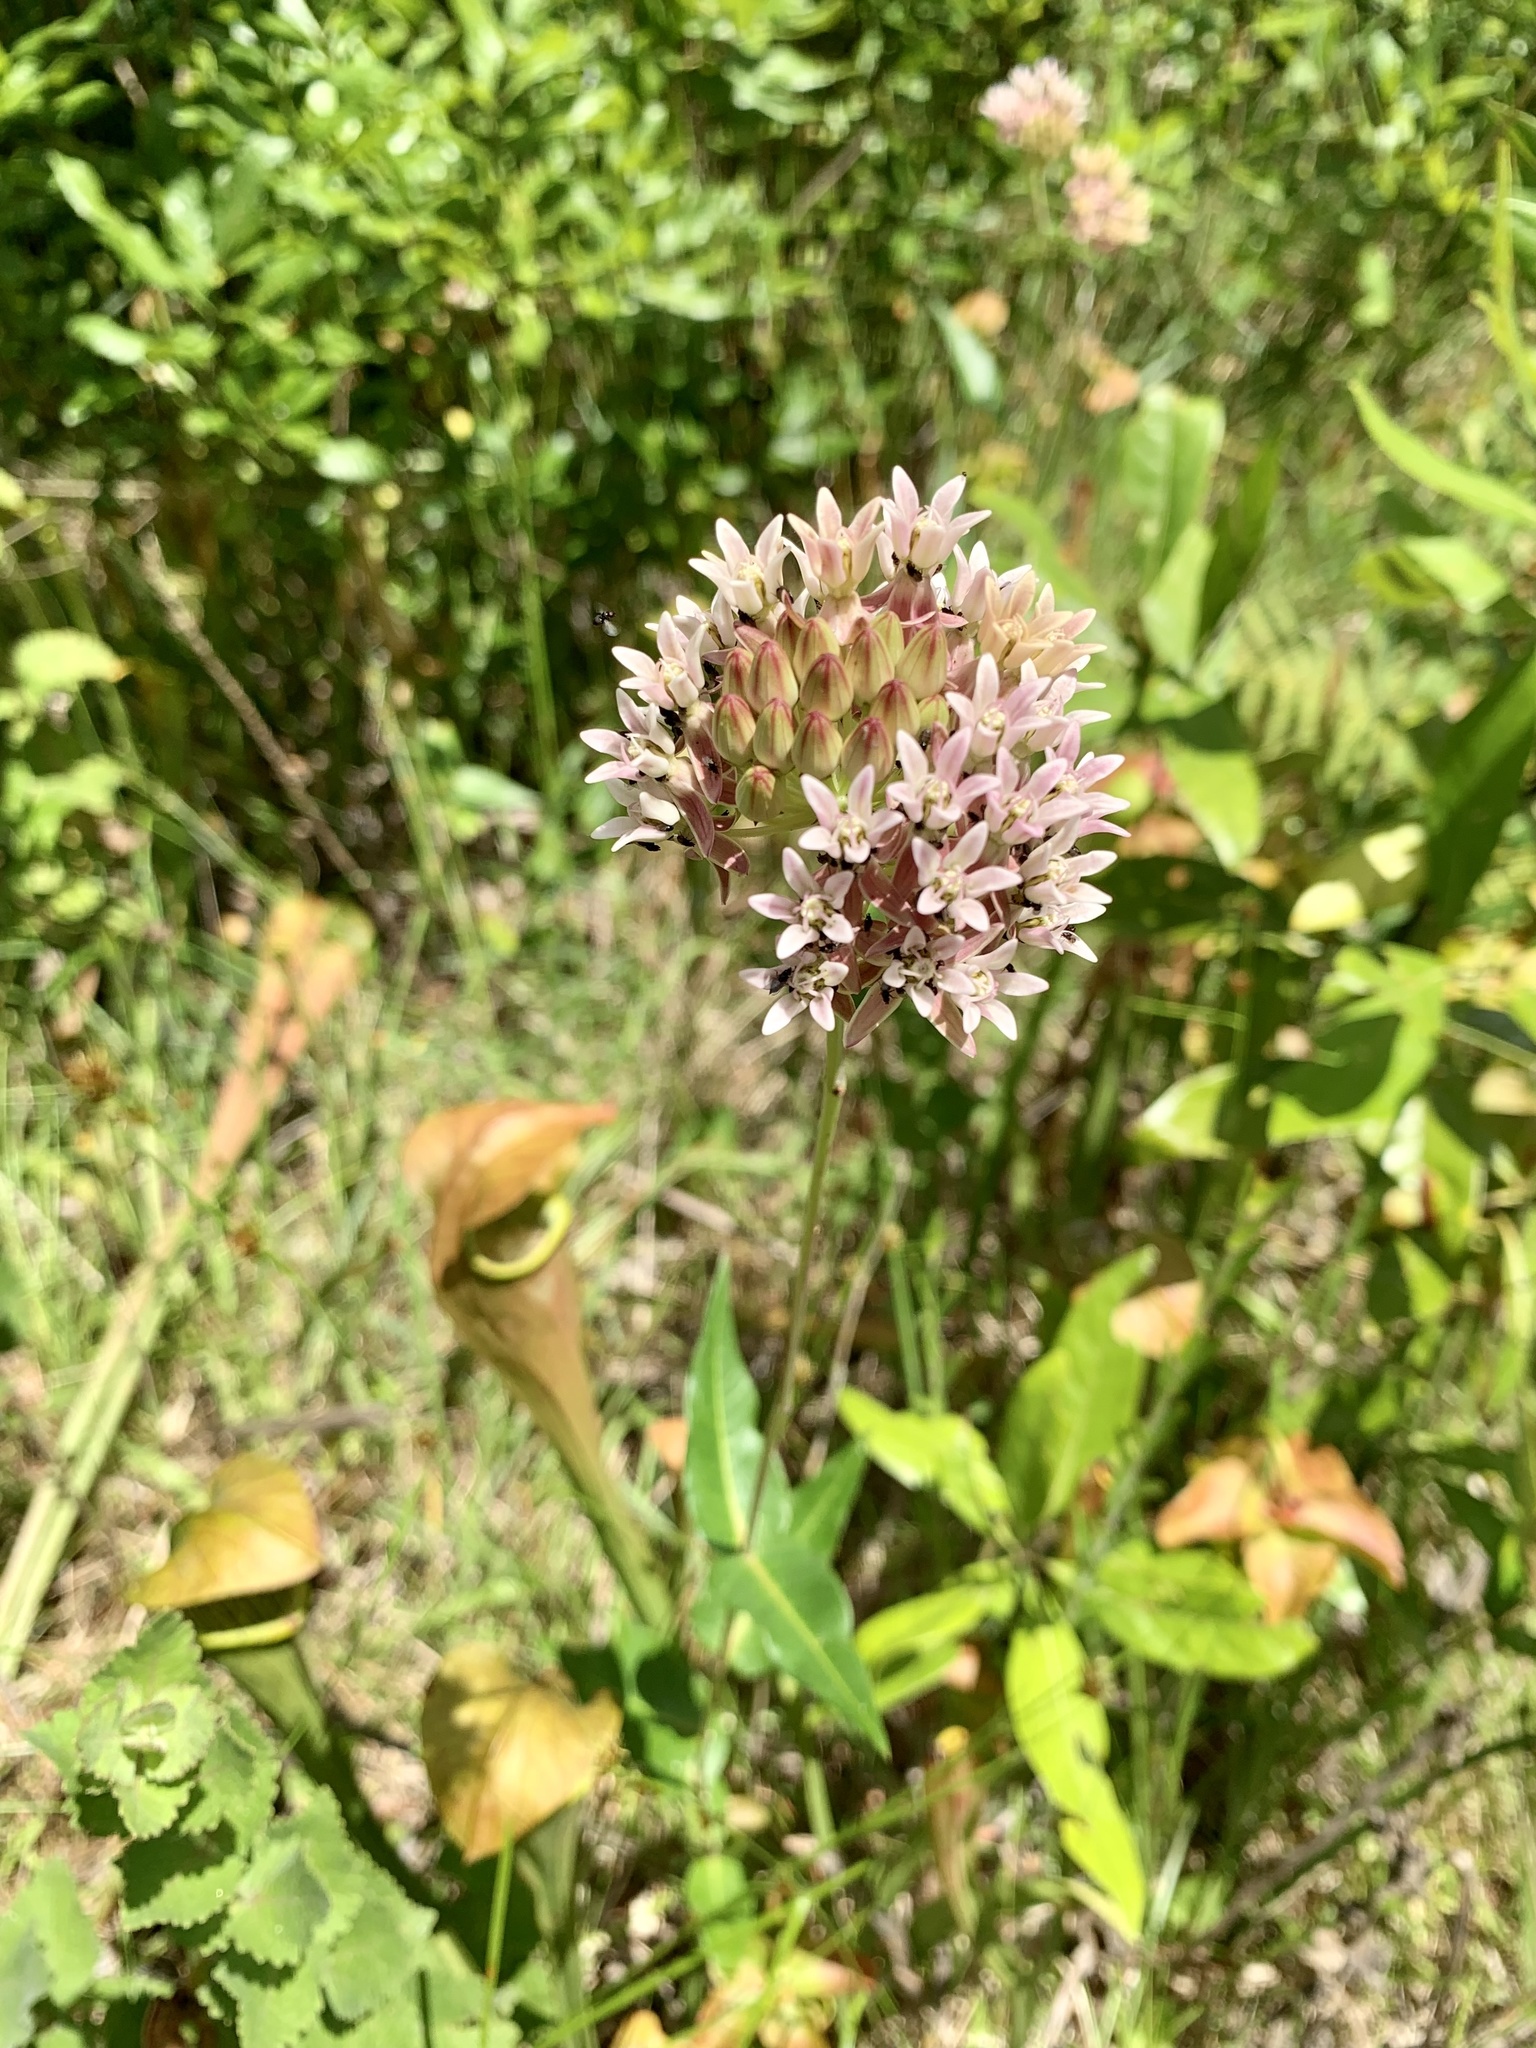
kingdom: Plantae
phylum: Tracheophyta
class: Magnoliopsida
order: Gentianales
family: Apocynaceae
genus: Asclepias
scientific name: Asclepias rubra
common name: Red milkweed
